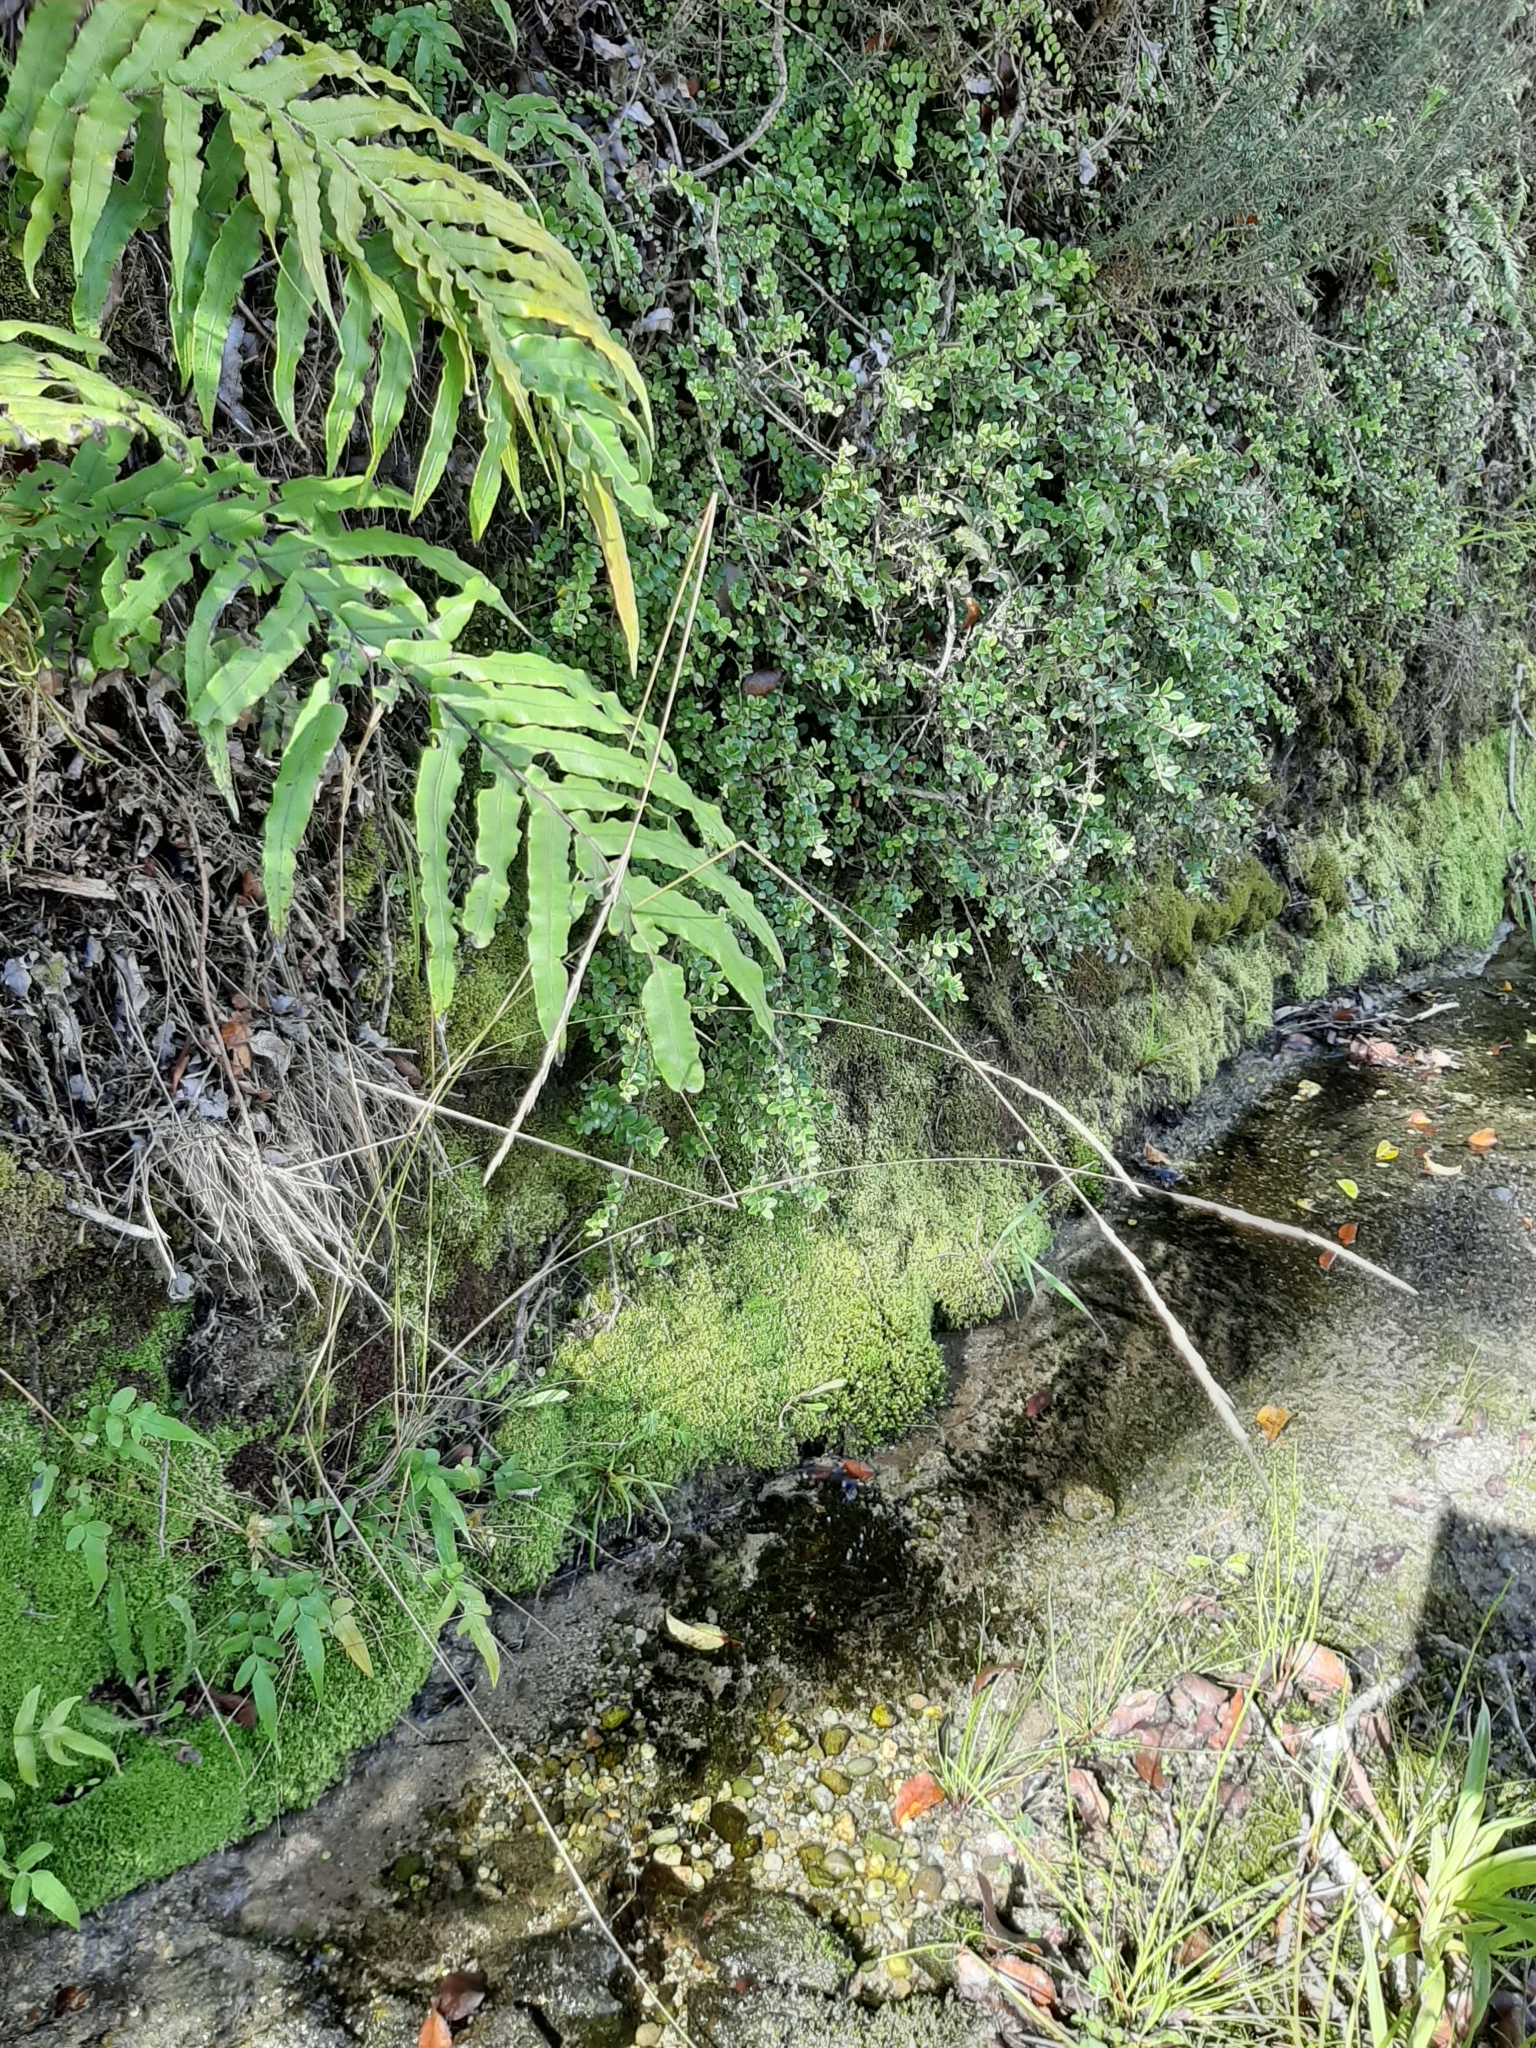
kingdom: Plantae
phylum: Tracheophyta
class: Liliopsida
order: Poales
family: Poaceae
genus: Calamagrostis
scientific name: Calamagrostis avenoides
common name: Mountain oat grass
